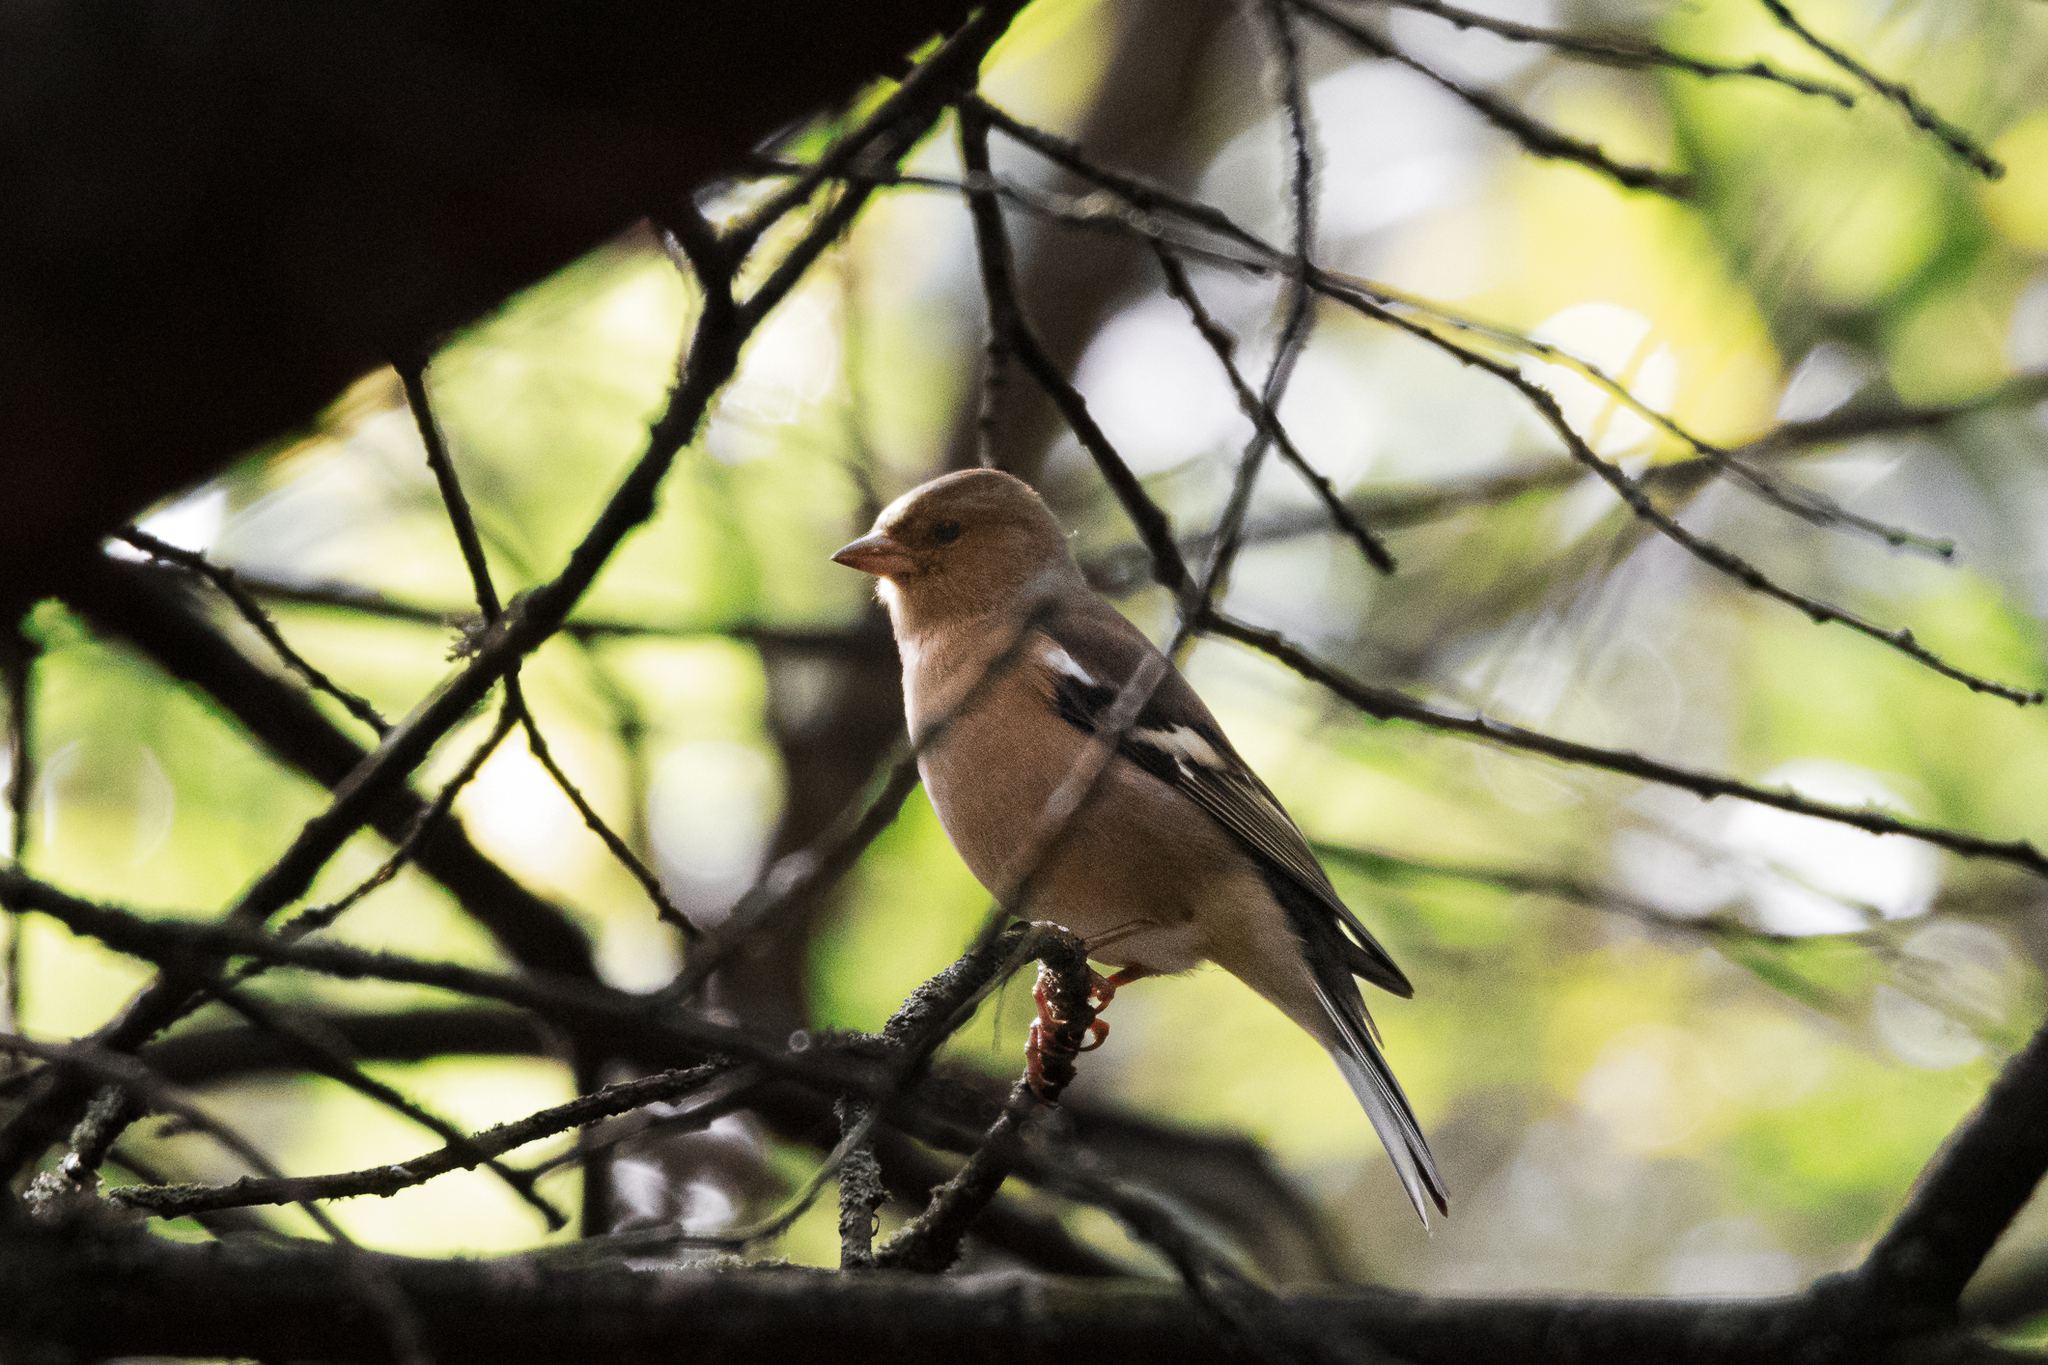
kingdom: Animalia
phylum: Chordata
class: Aves
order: Passeriformes
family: Fringillidae
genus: Fringilla
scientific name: Fringilla coelebs
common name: Common chaffinch
